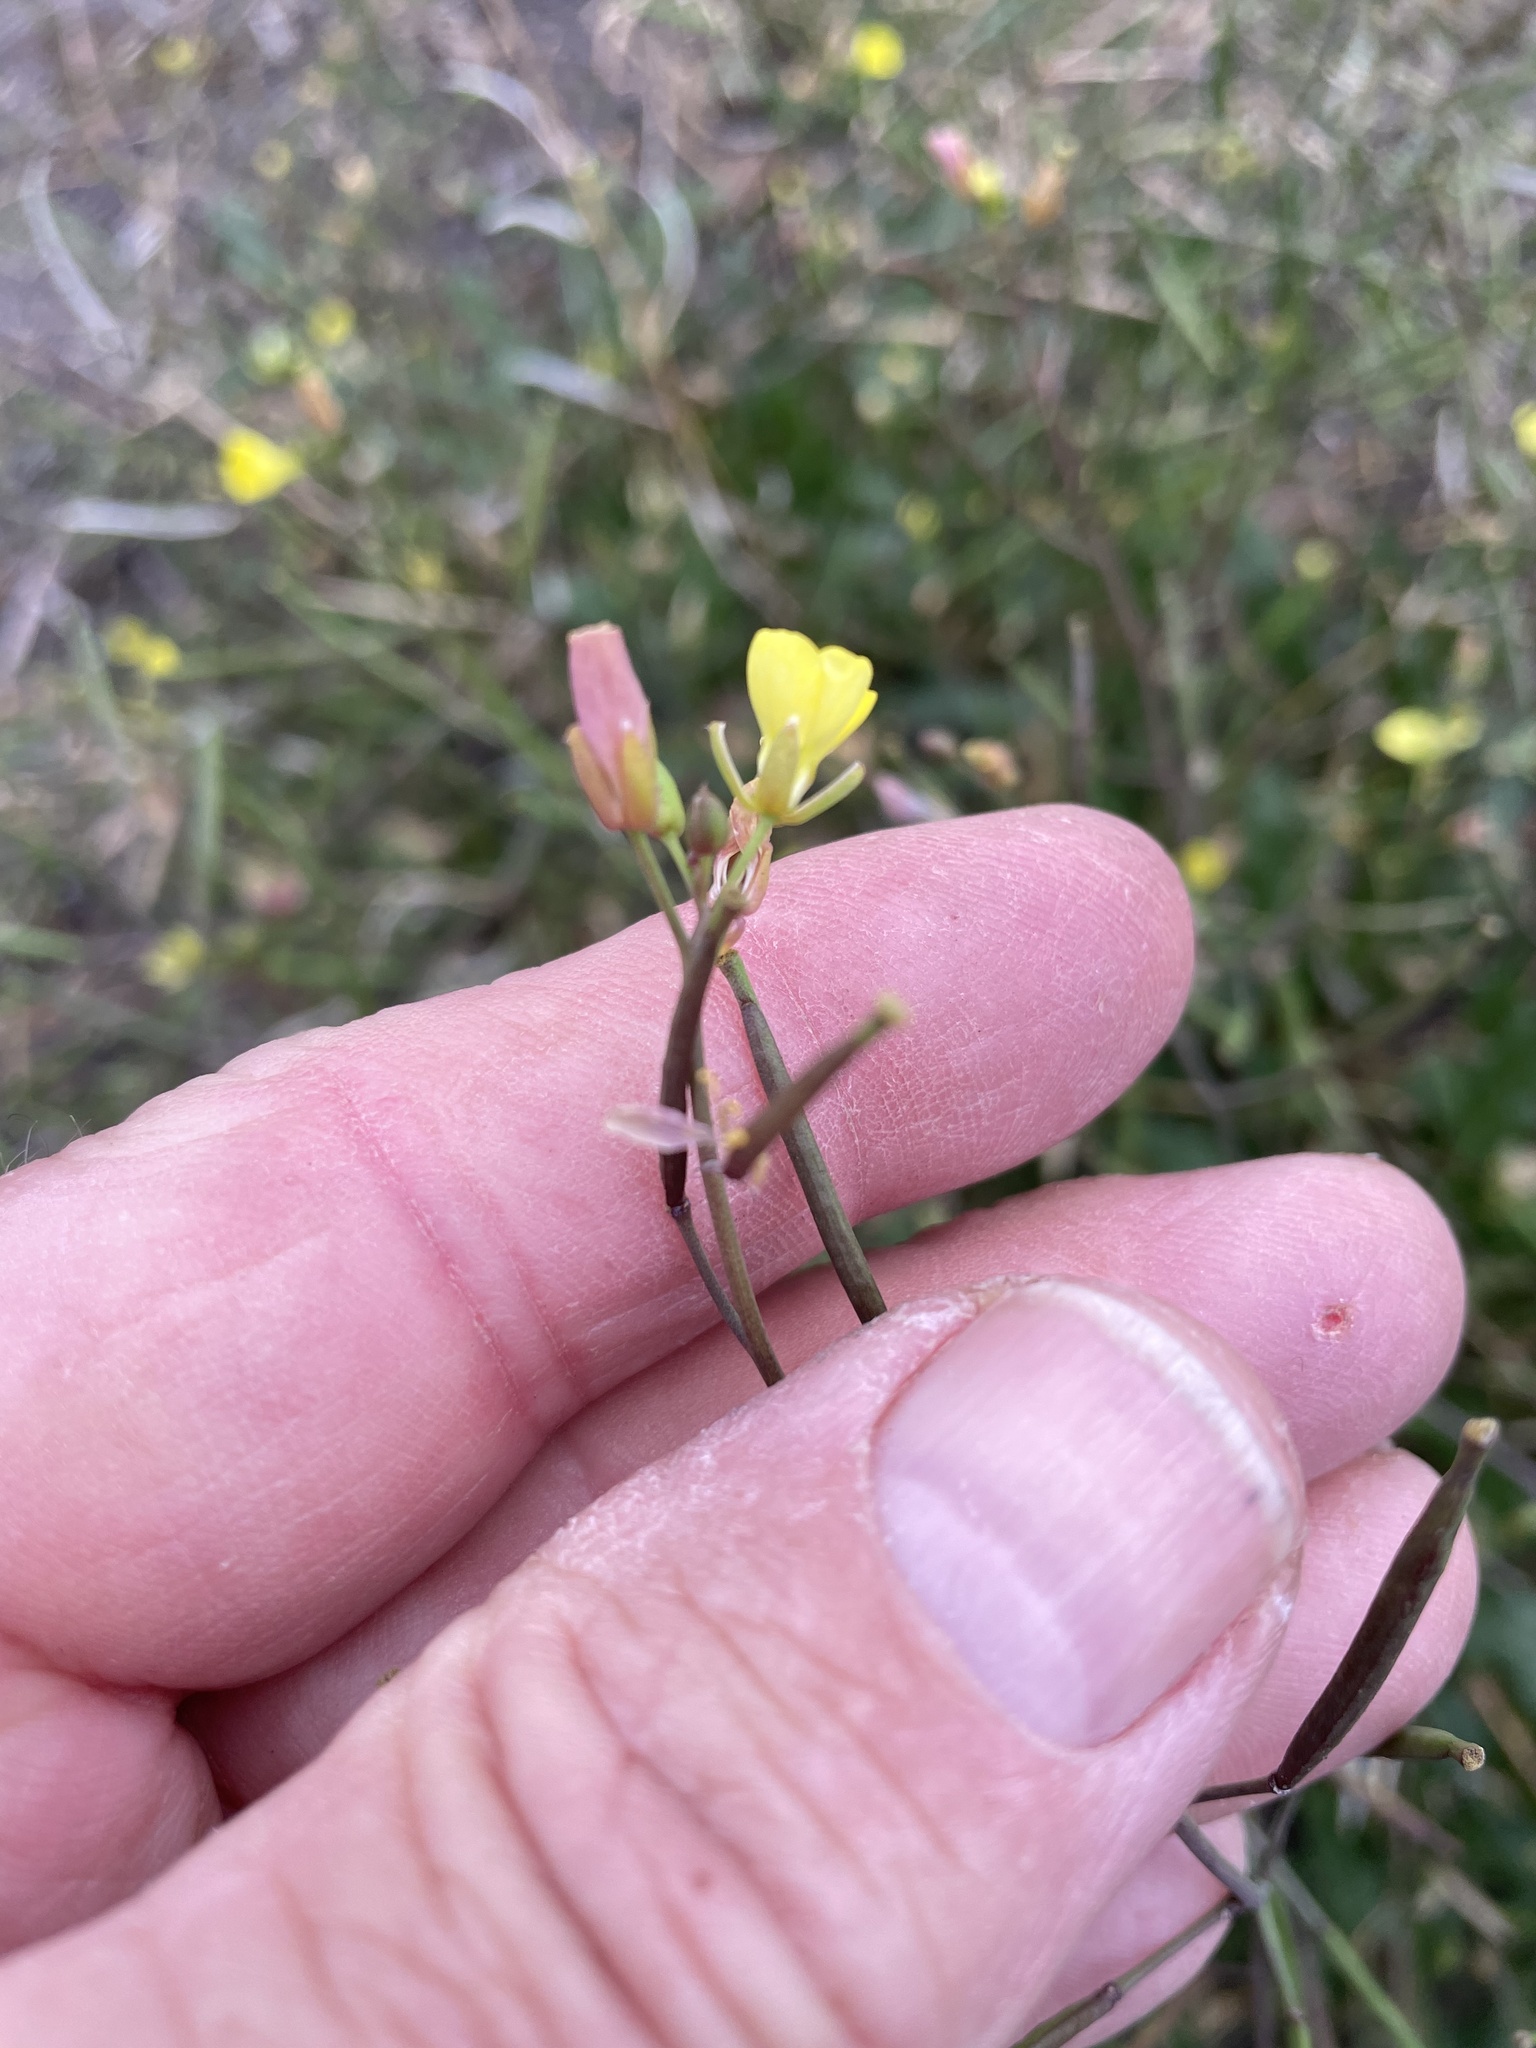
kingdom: Plantae
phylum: Tracheophyta
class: Magnoliopsida
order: Brassicales
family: Brassicaceae
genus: Diplotaxis
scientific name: Diplotaxis muralis
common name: Annual wall-rocket
